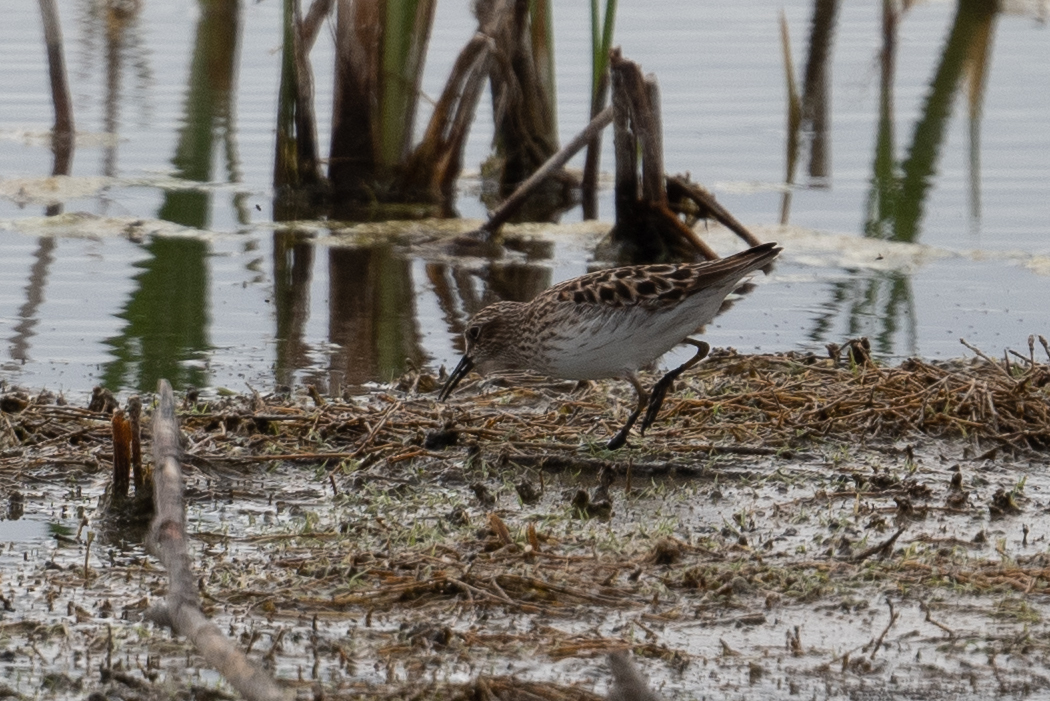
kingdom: Animalia
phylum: Chordata
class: Aves
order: Charadriiformes
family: Scolopacidae
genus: Calidris
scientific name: Calidris minutilla
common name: Least sandpiper
